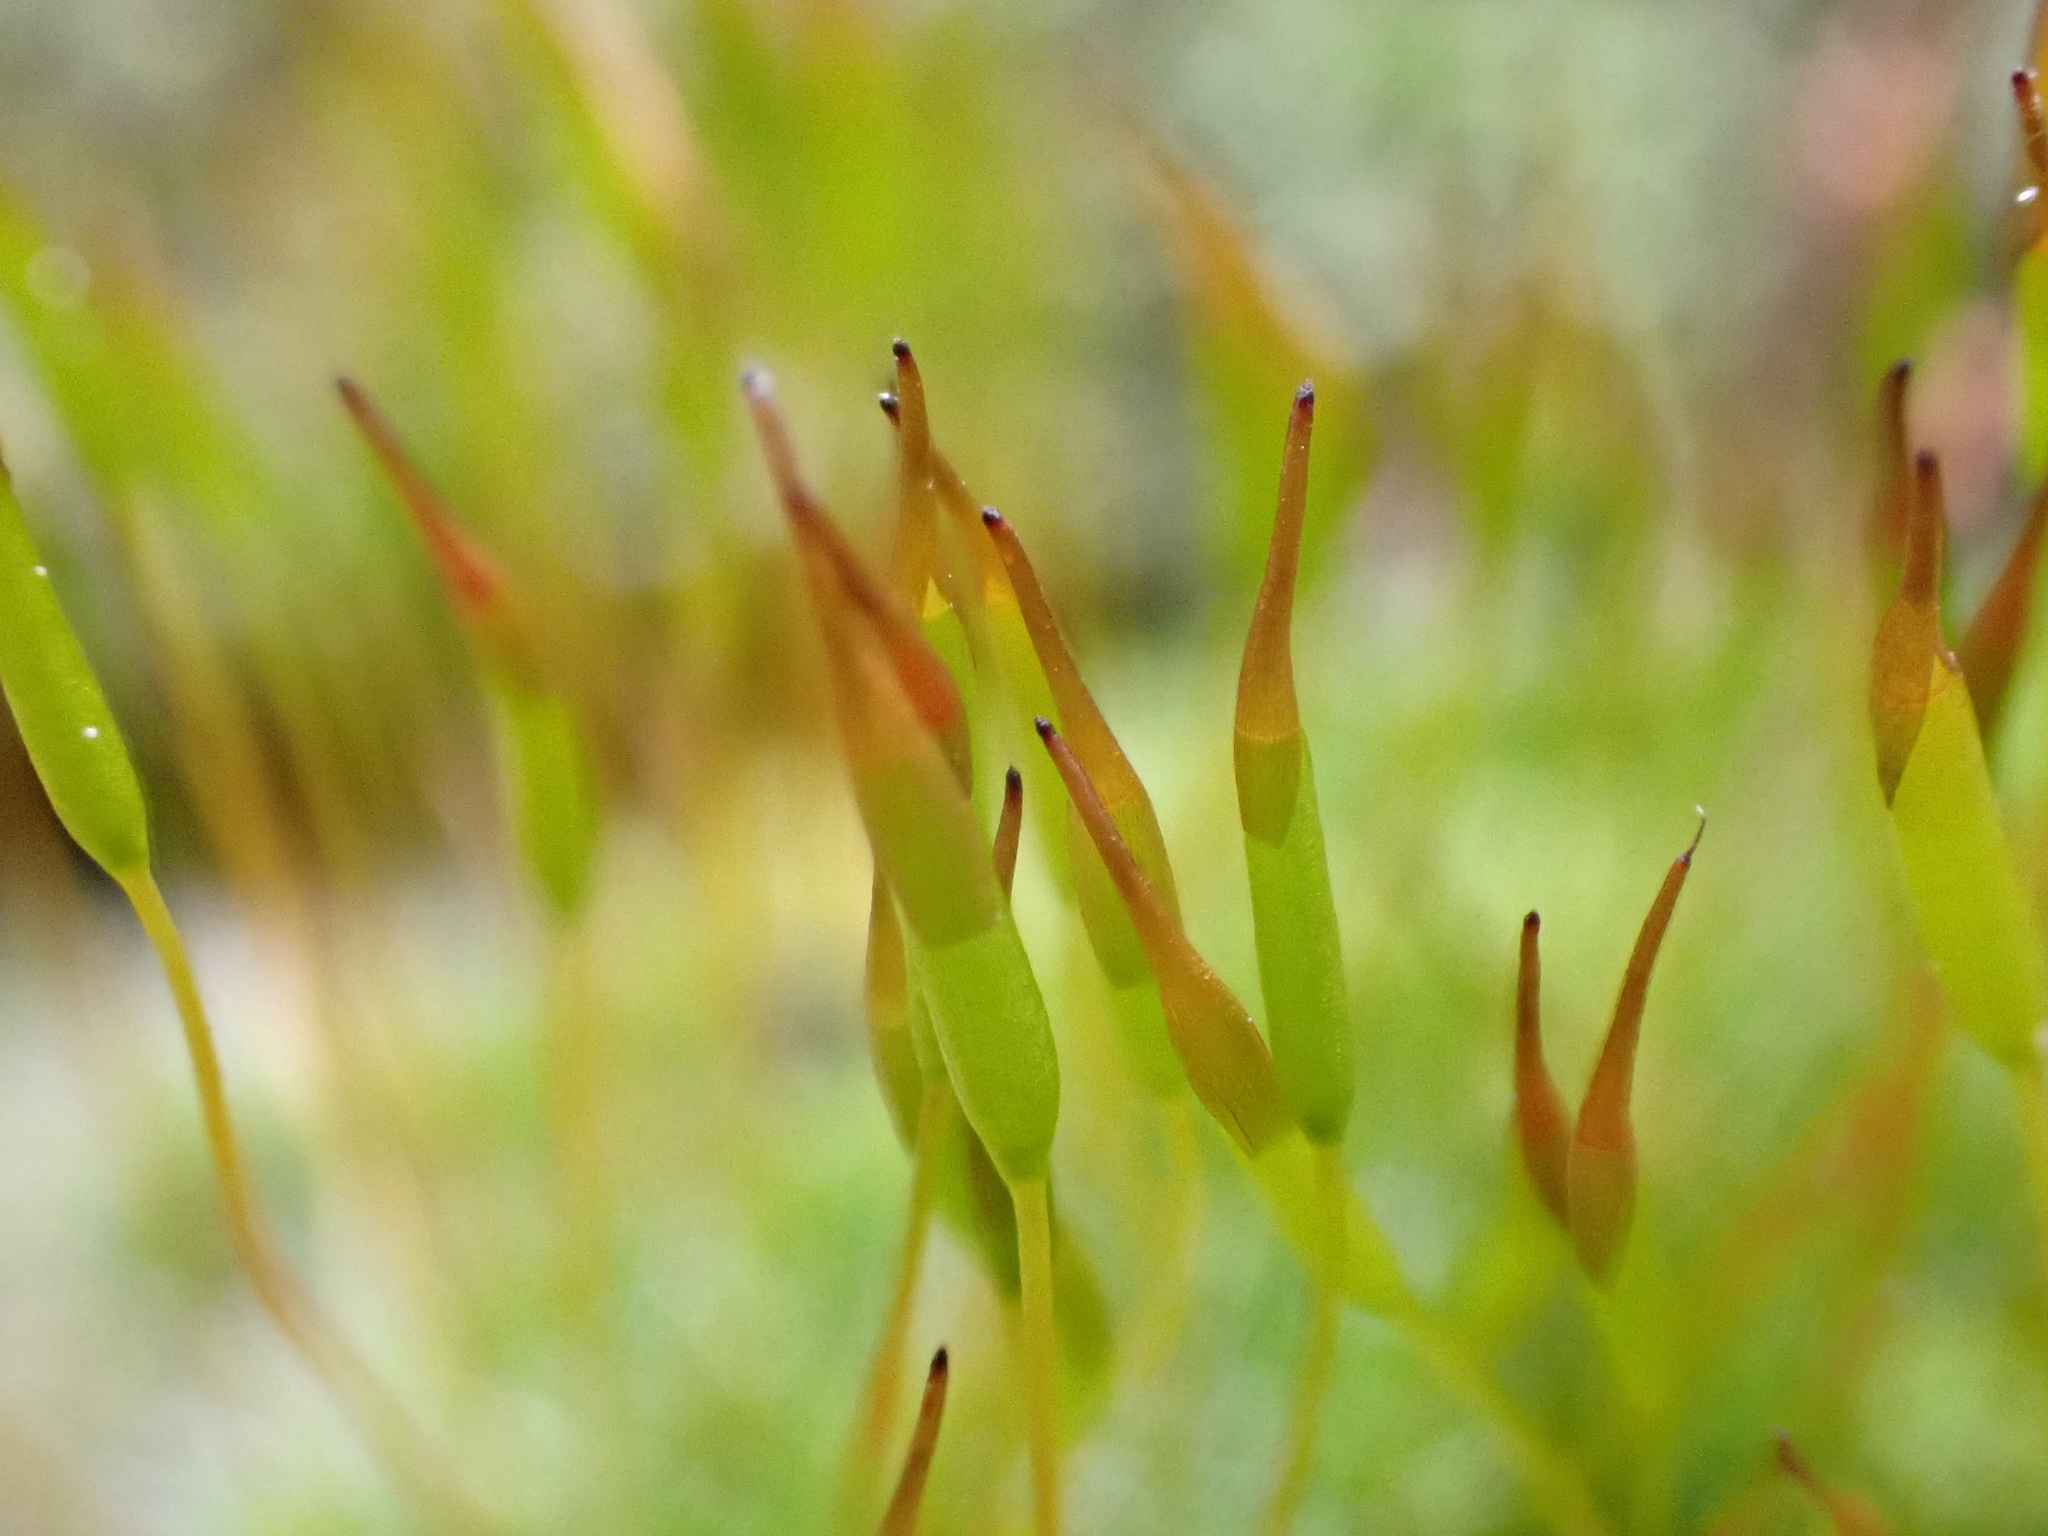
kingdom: Plantae
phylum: Bryophyta
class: Bryopsida
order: Pottiales
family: Pottiaceae
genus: Tortula
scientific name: Tortula muralis
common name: Wall screw-moss
